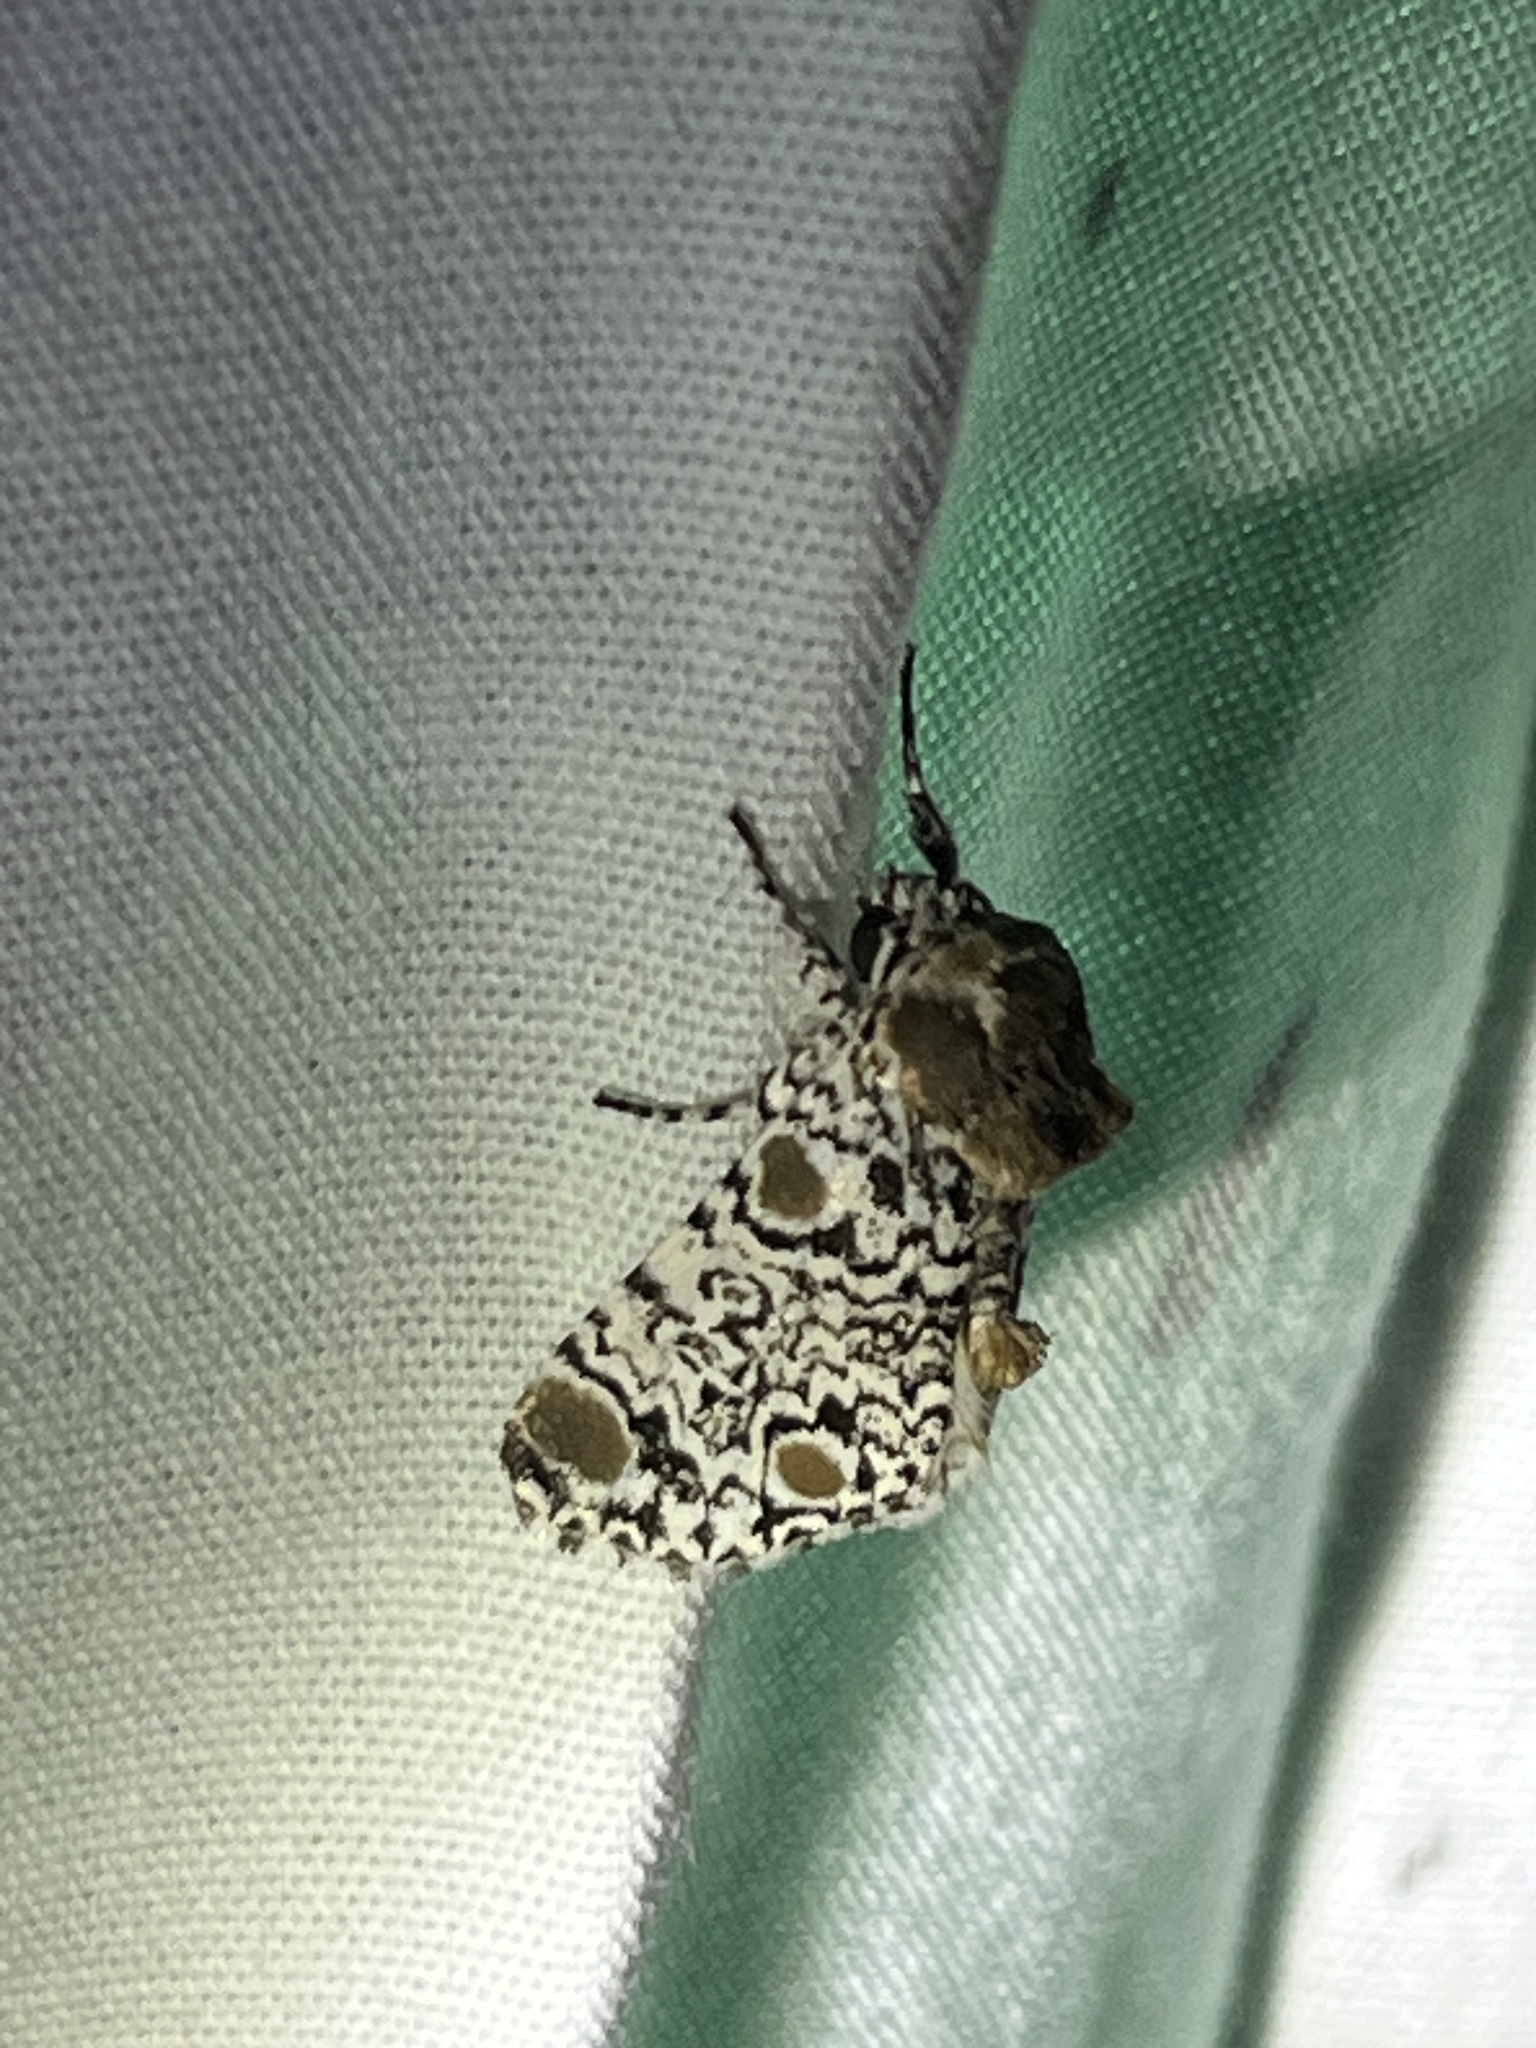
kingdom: Animalia
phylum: Arthropoda
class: Insecta
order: Lepidoptera
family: Noctuidae
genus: Harrisimemna
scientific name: Harrisimemna trisignata
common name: Harris threespot
